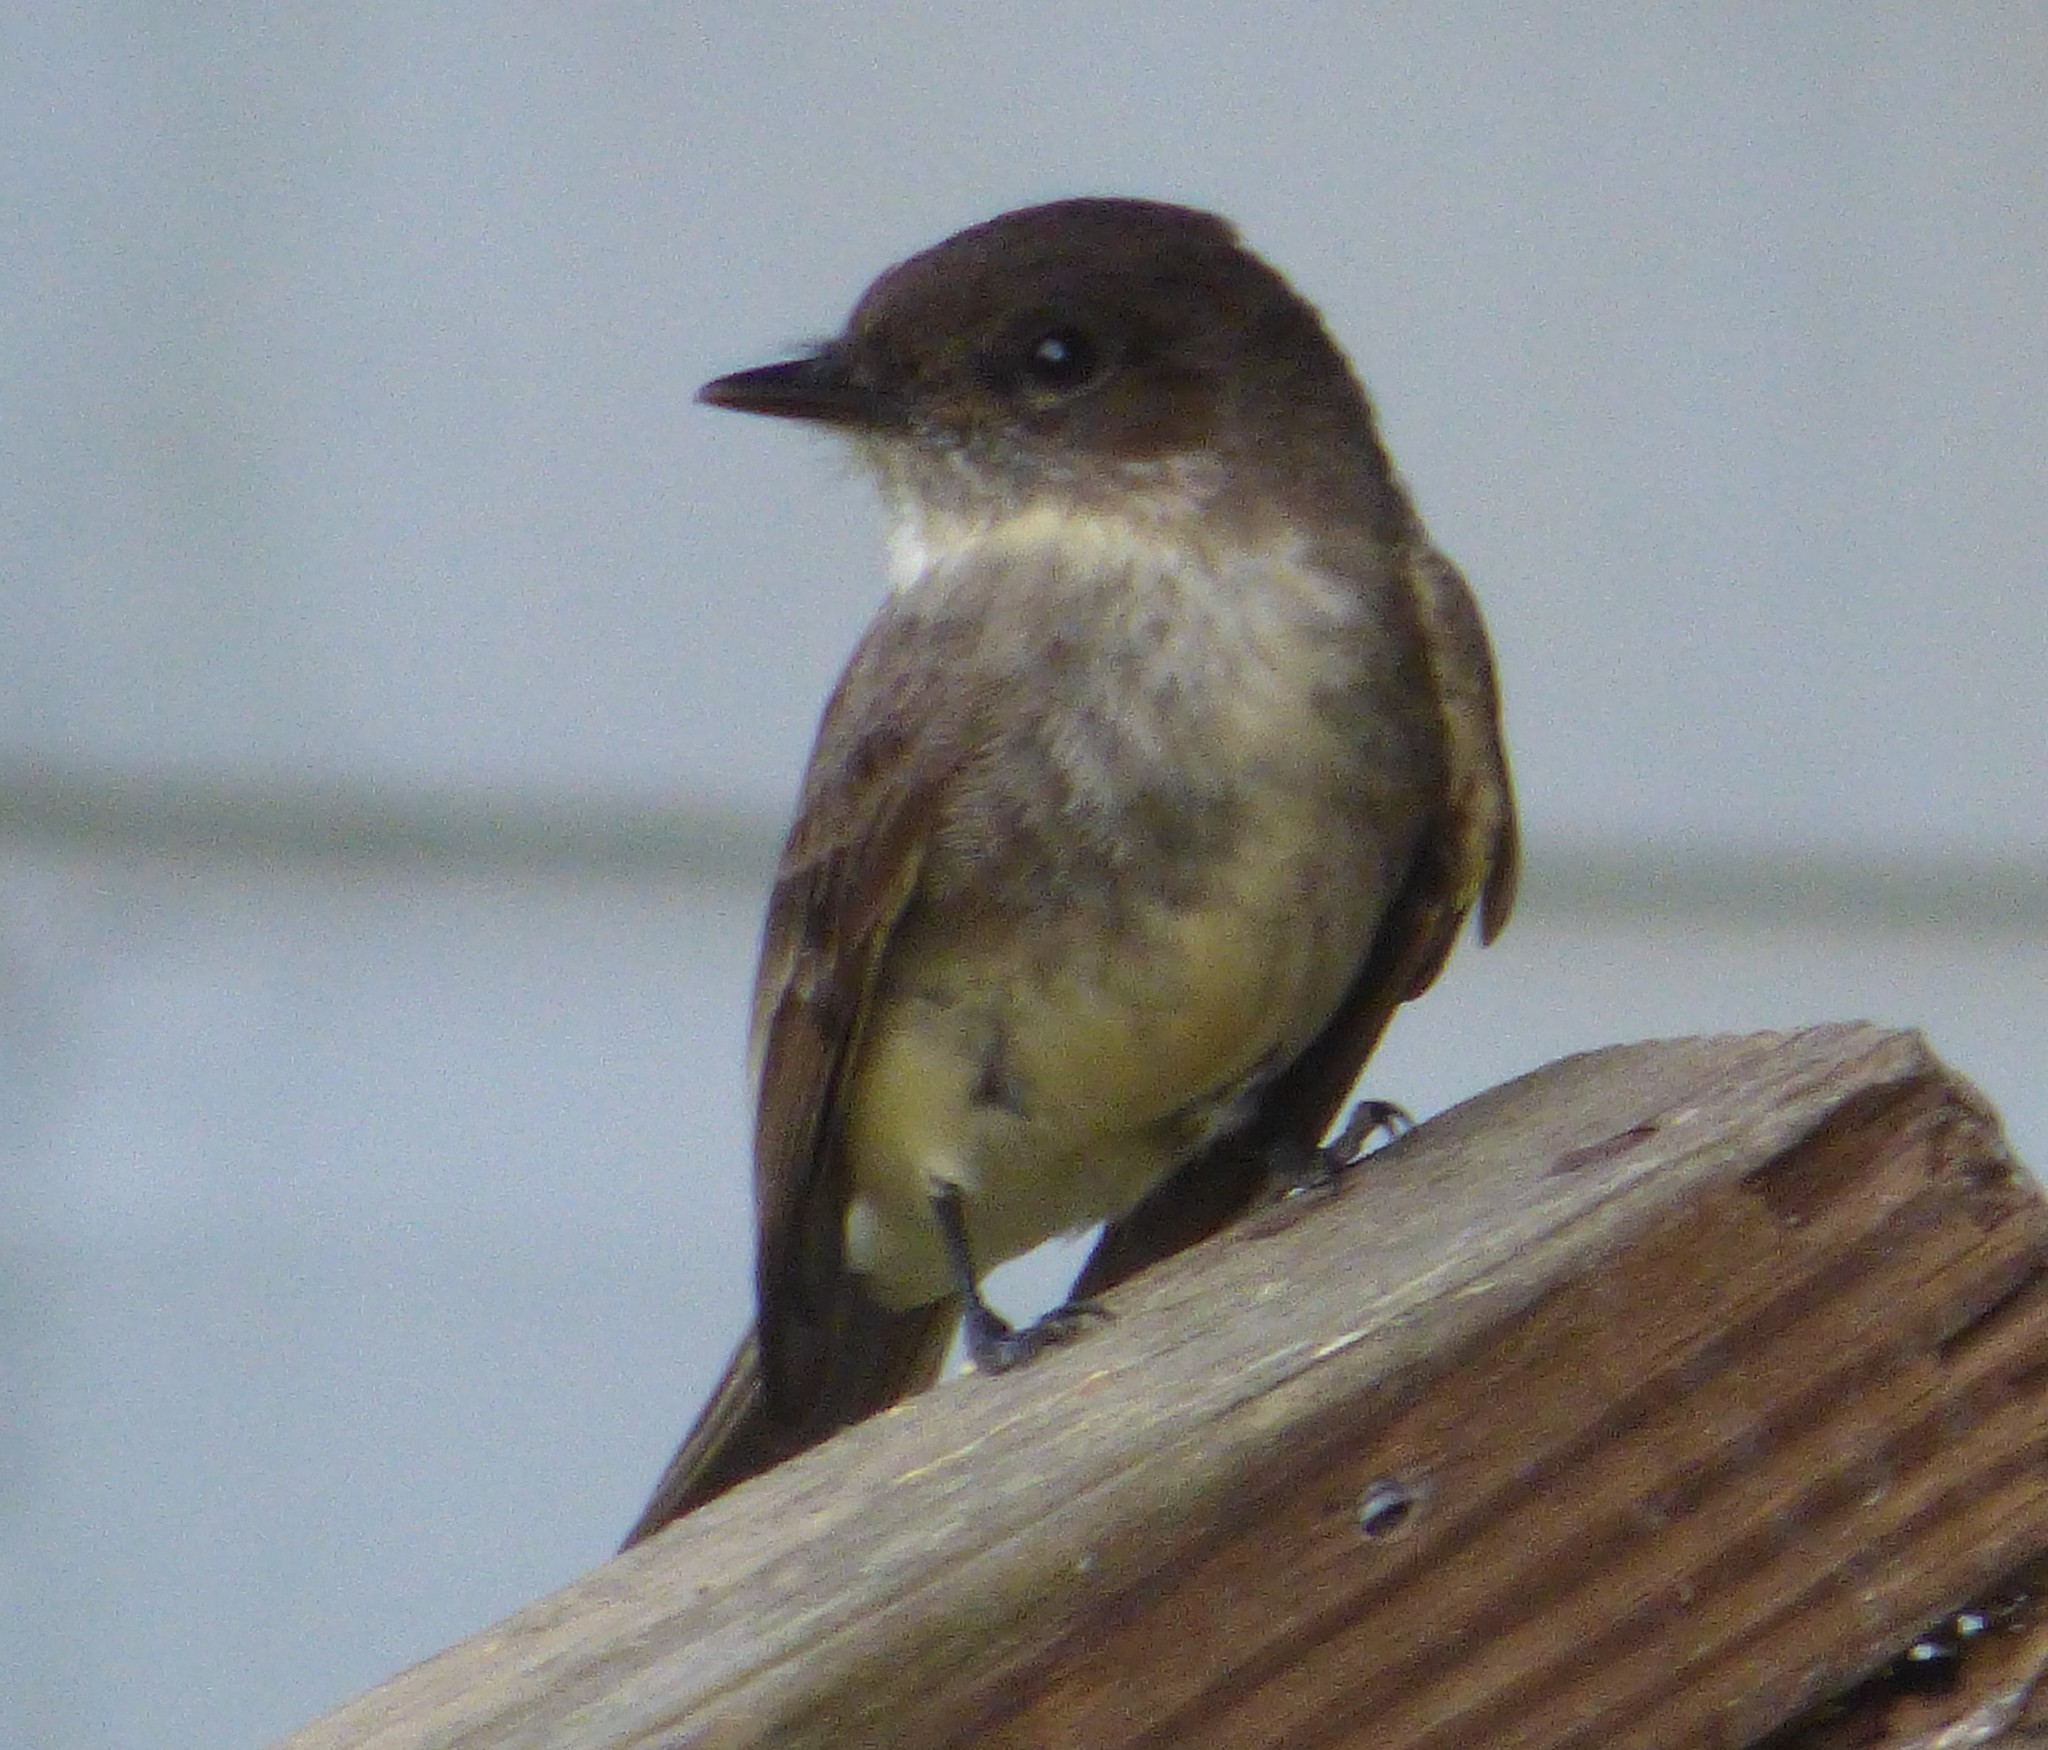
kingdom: Animalia
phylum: Chordata
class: Aves
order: Passeriformes
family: Tyrannidae
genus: Sayornis
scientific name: Sayornis phoebe
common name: Eastern phoebe
